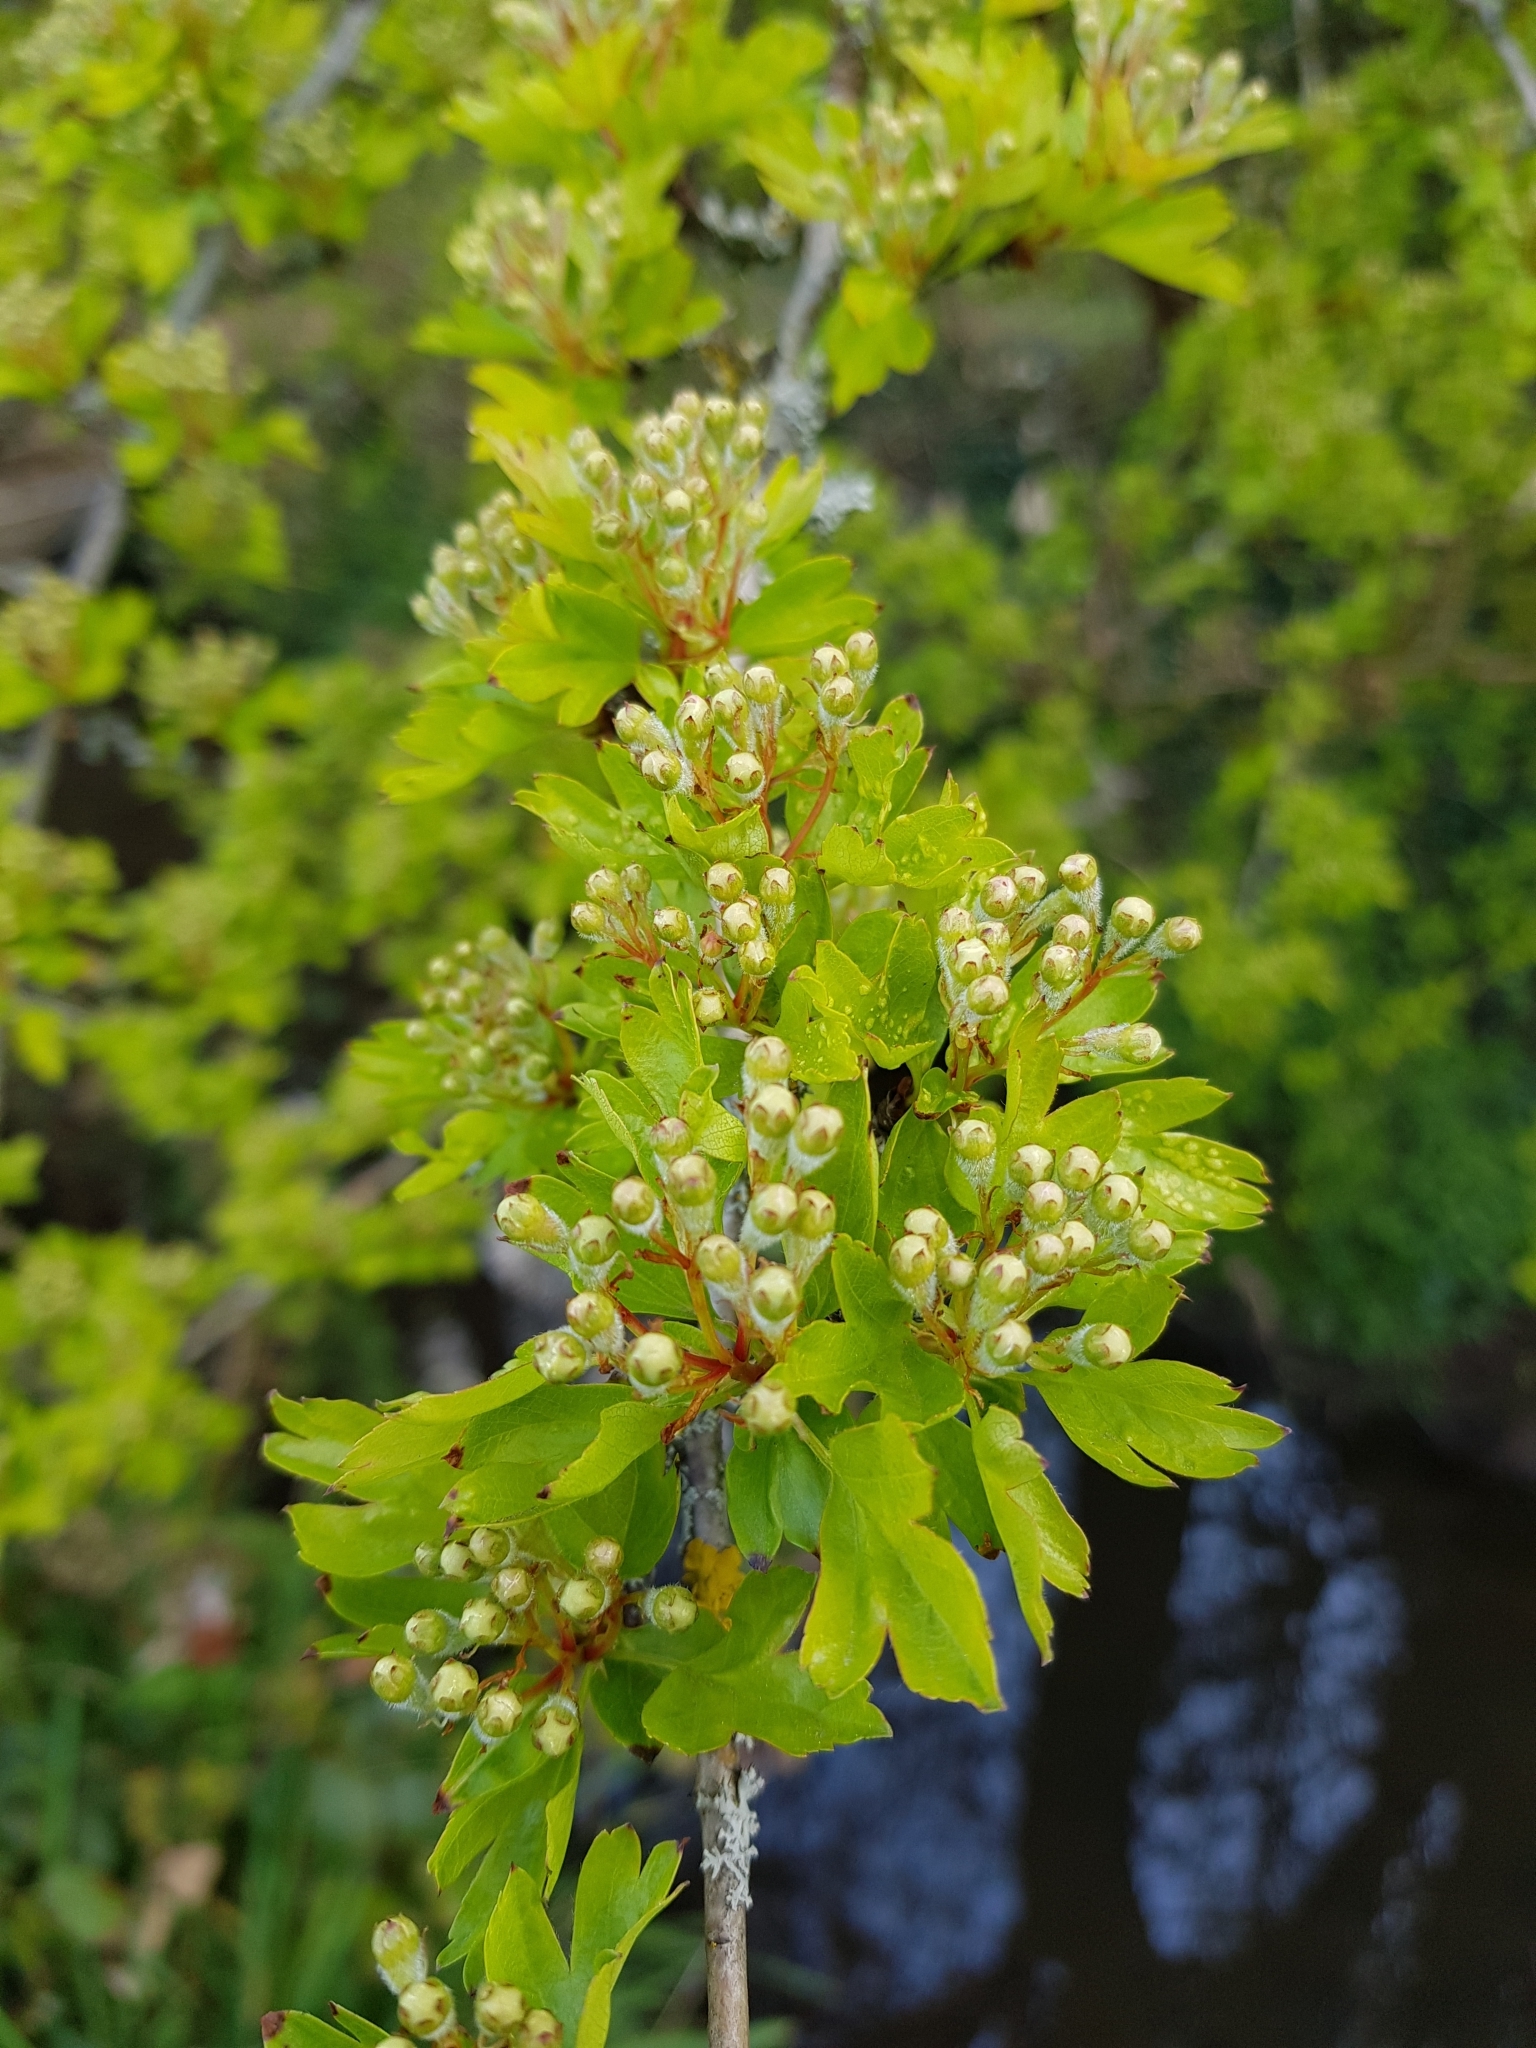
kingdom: Plantae
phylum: Tracheophyta
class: Magnoliopsida
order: Rosales
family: Rosaceae
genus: Crataegus
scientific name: Crataegus monogyna
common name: Hawthorn
